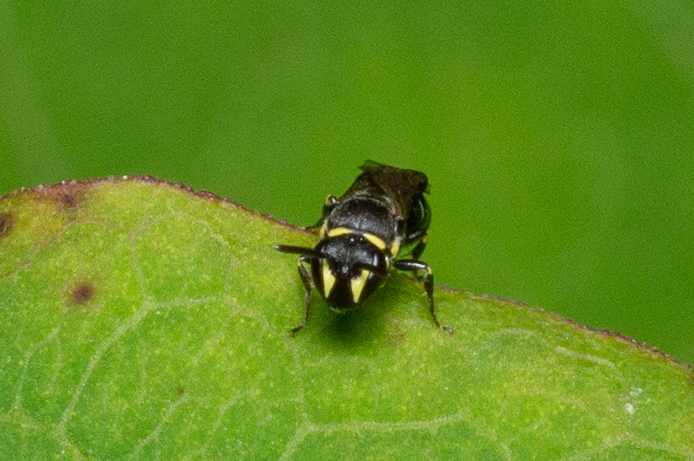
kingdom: Animalia
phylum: Arthropoda
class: Insecta
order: Hymenoptera
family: Colletidae
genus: Hylaeus
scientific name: Hylaeus modestus
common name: Yellow-faced bee
